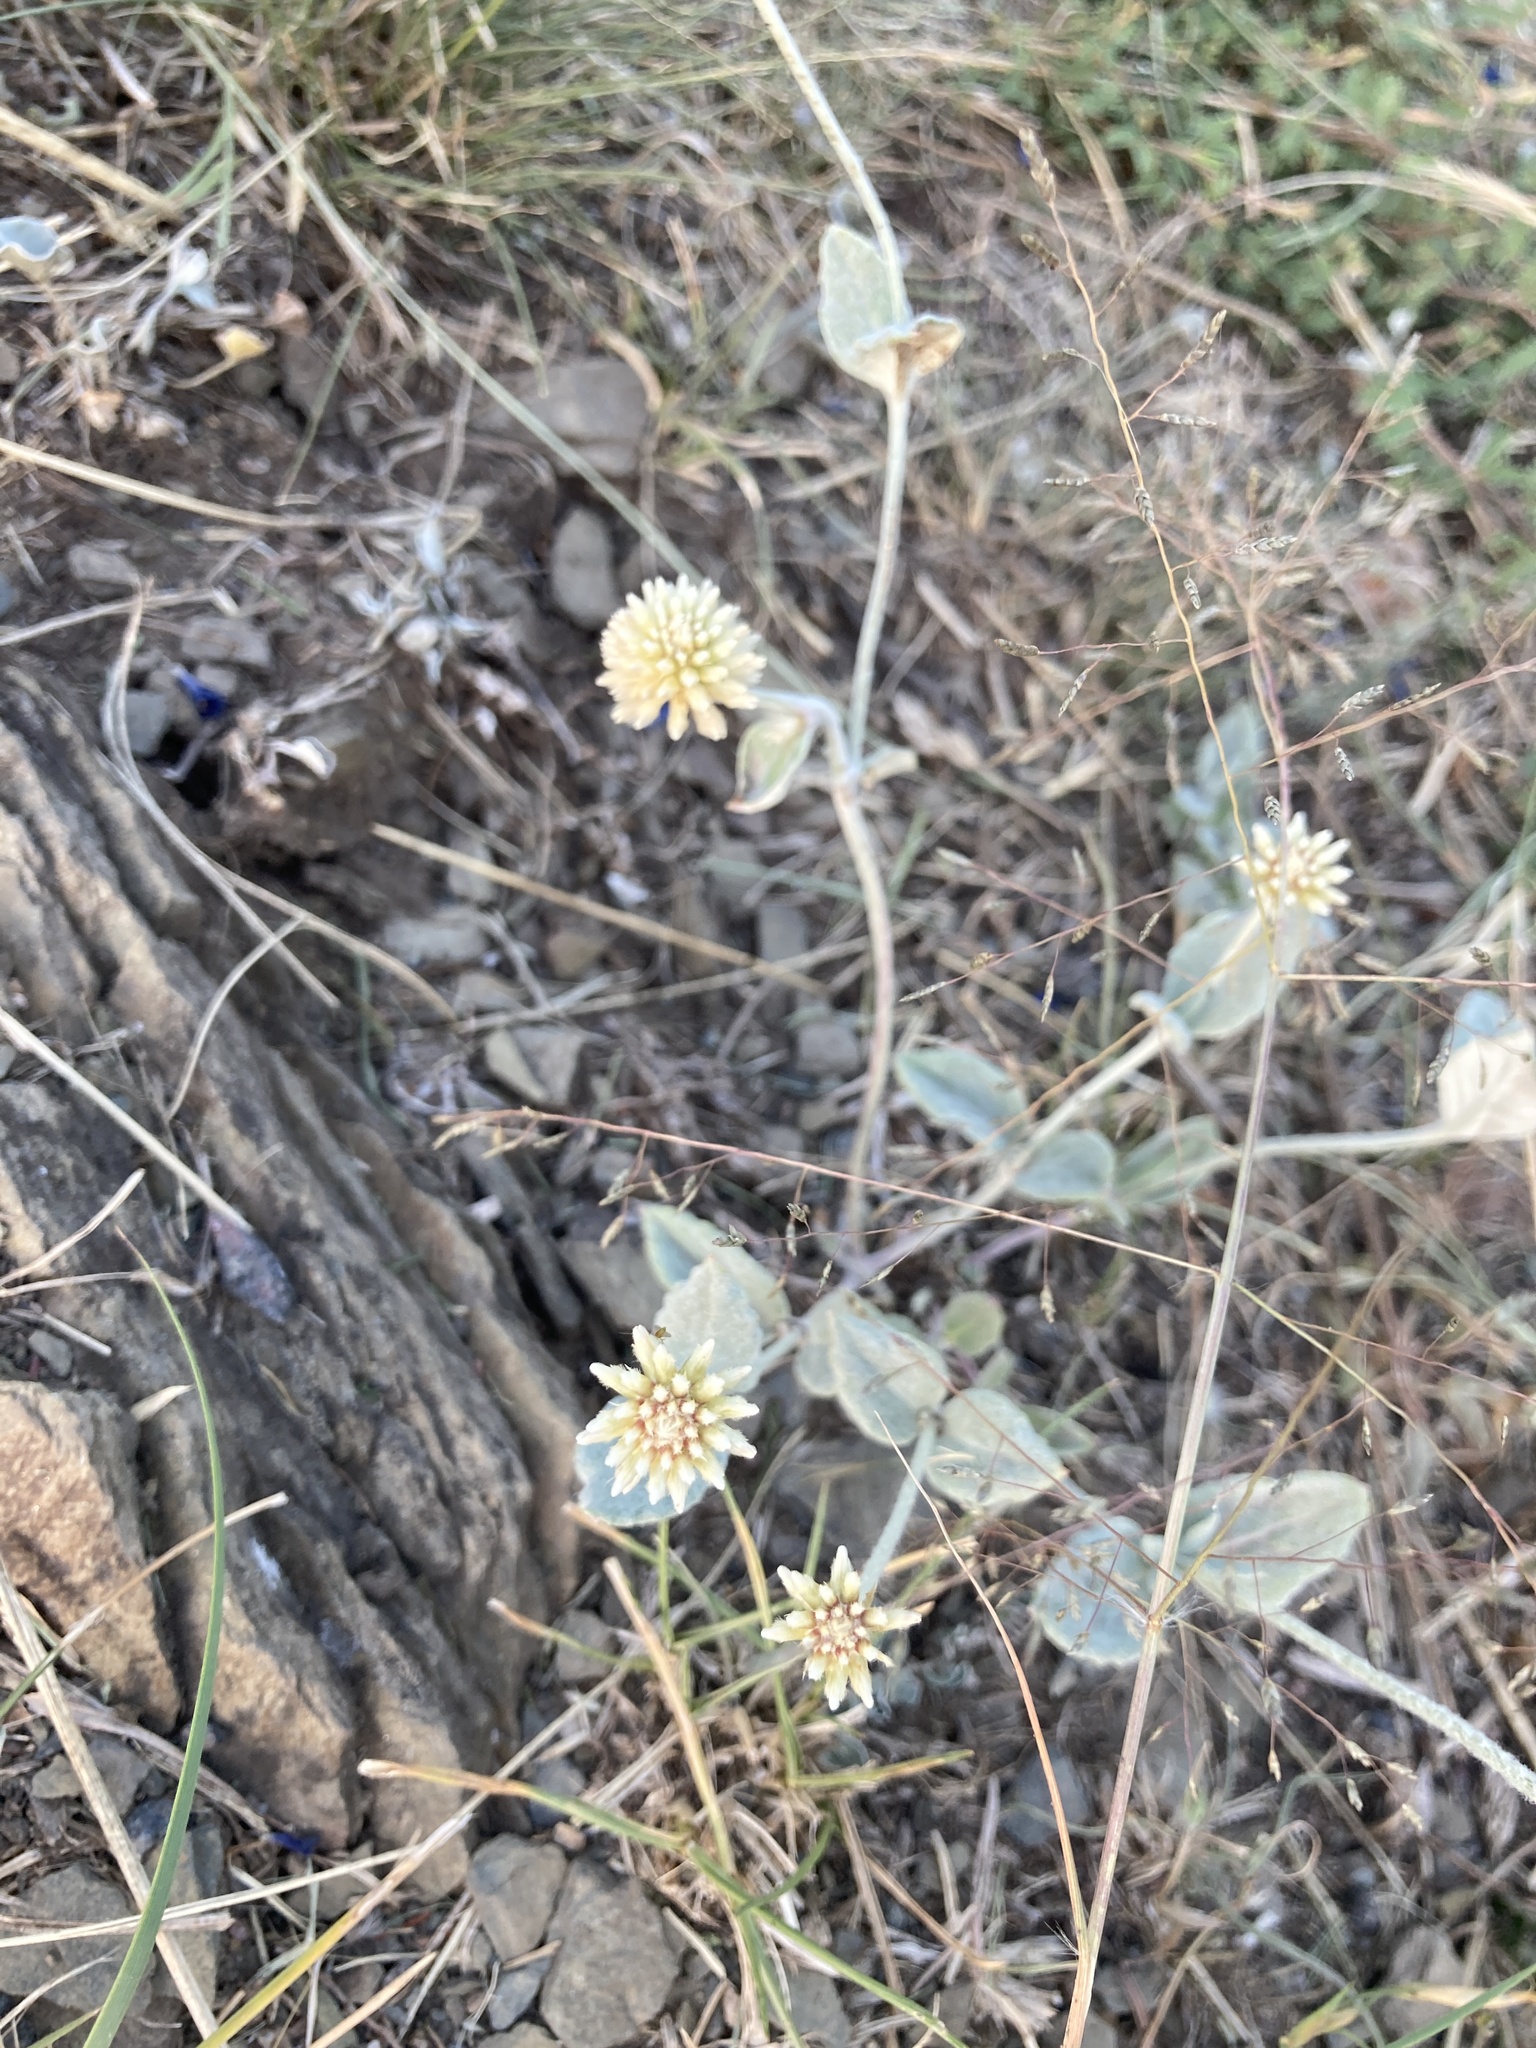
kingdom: Plantae
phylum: Tracheophyta
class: Magnoliopsida
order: Caryophyllales
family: Amaranthaceae
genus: Pfaffia
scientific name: Pfaffia gnaphalioides
